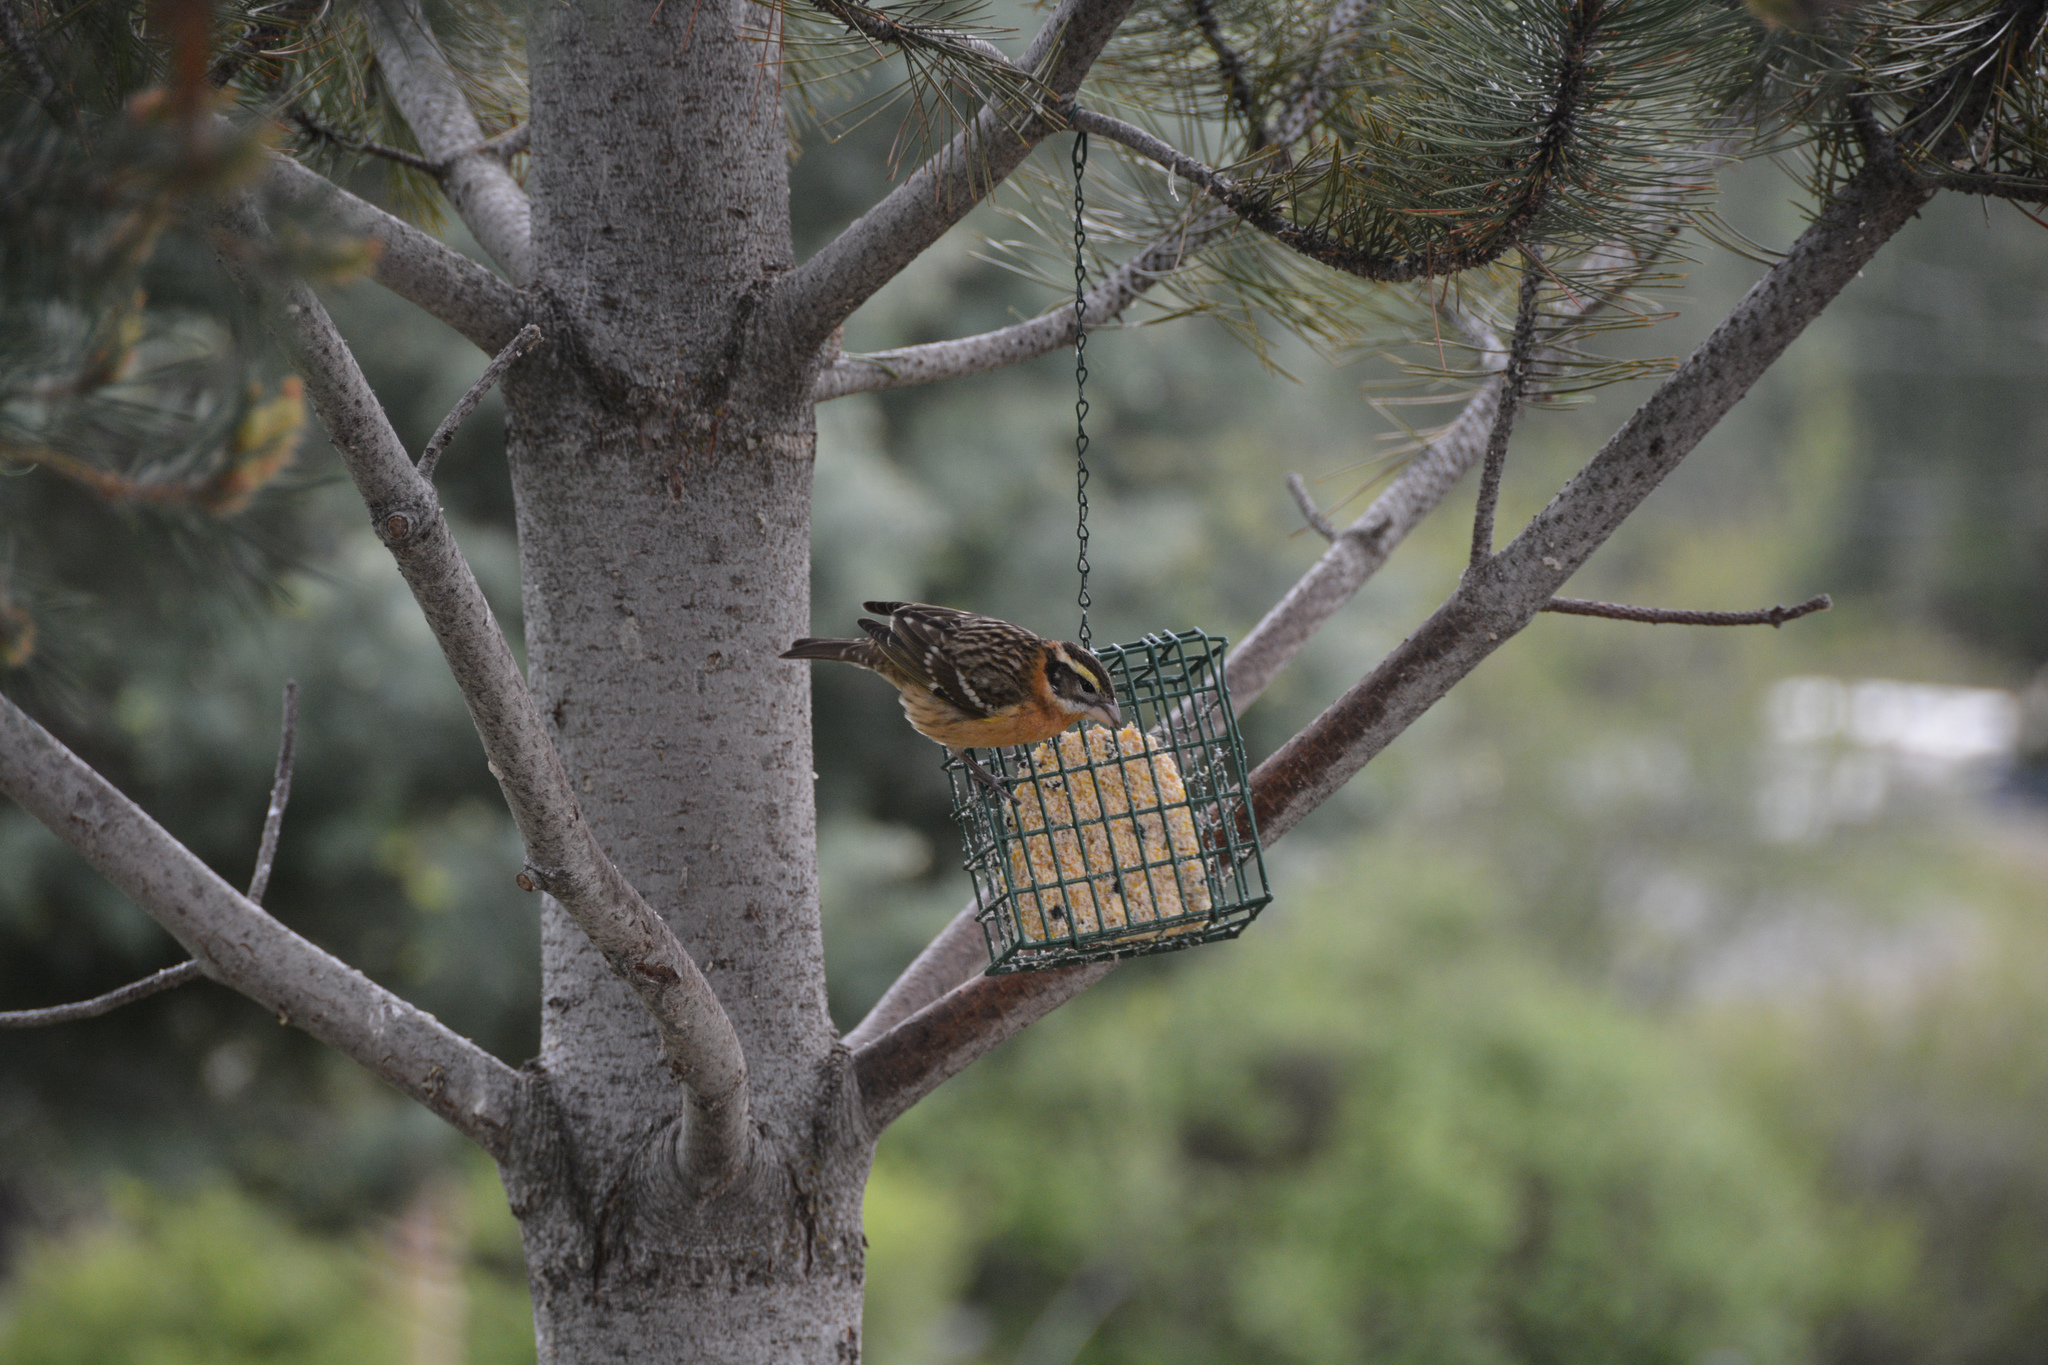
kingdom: Animalia
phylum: Chordata
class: Aves
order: Passeriformes
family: Cardinalidae
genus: Pheucticus
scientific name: Pheucticus melanocephalus
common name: Black-headed grosbeak
